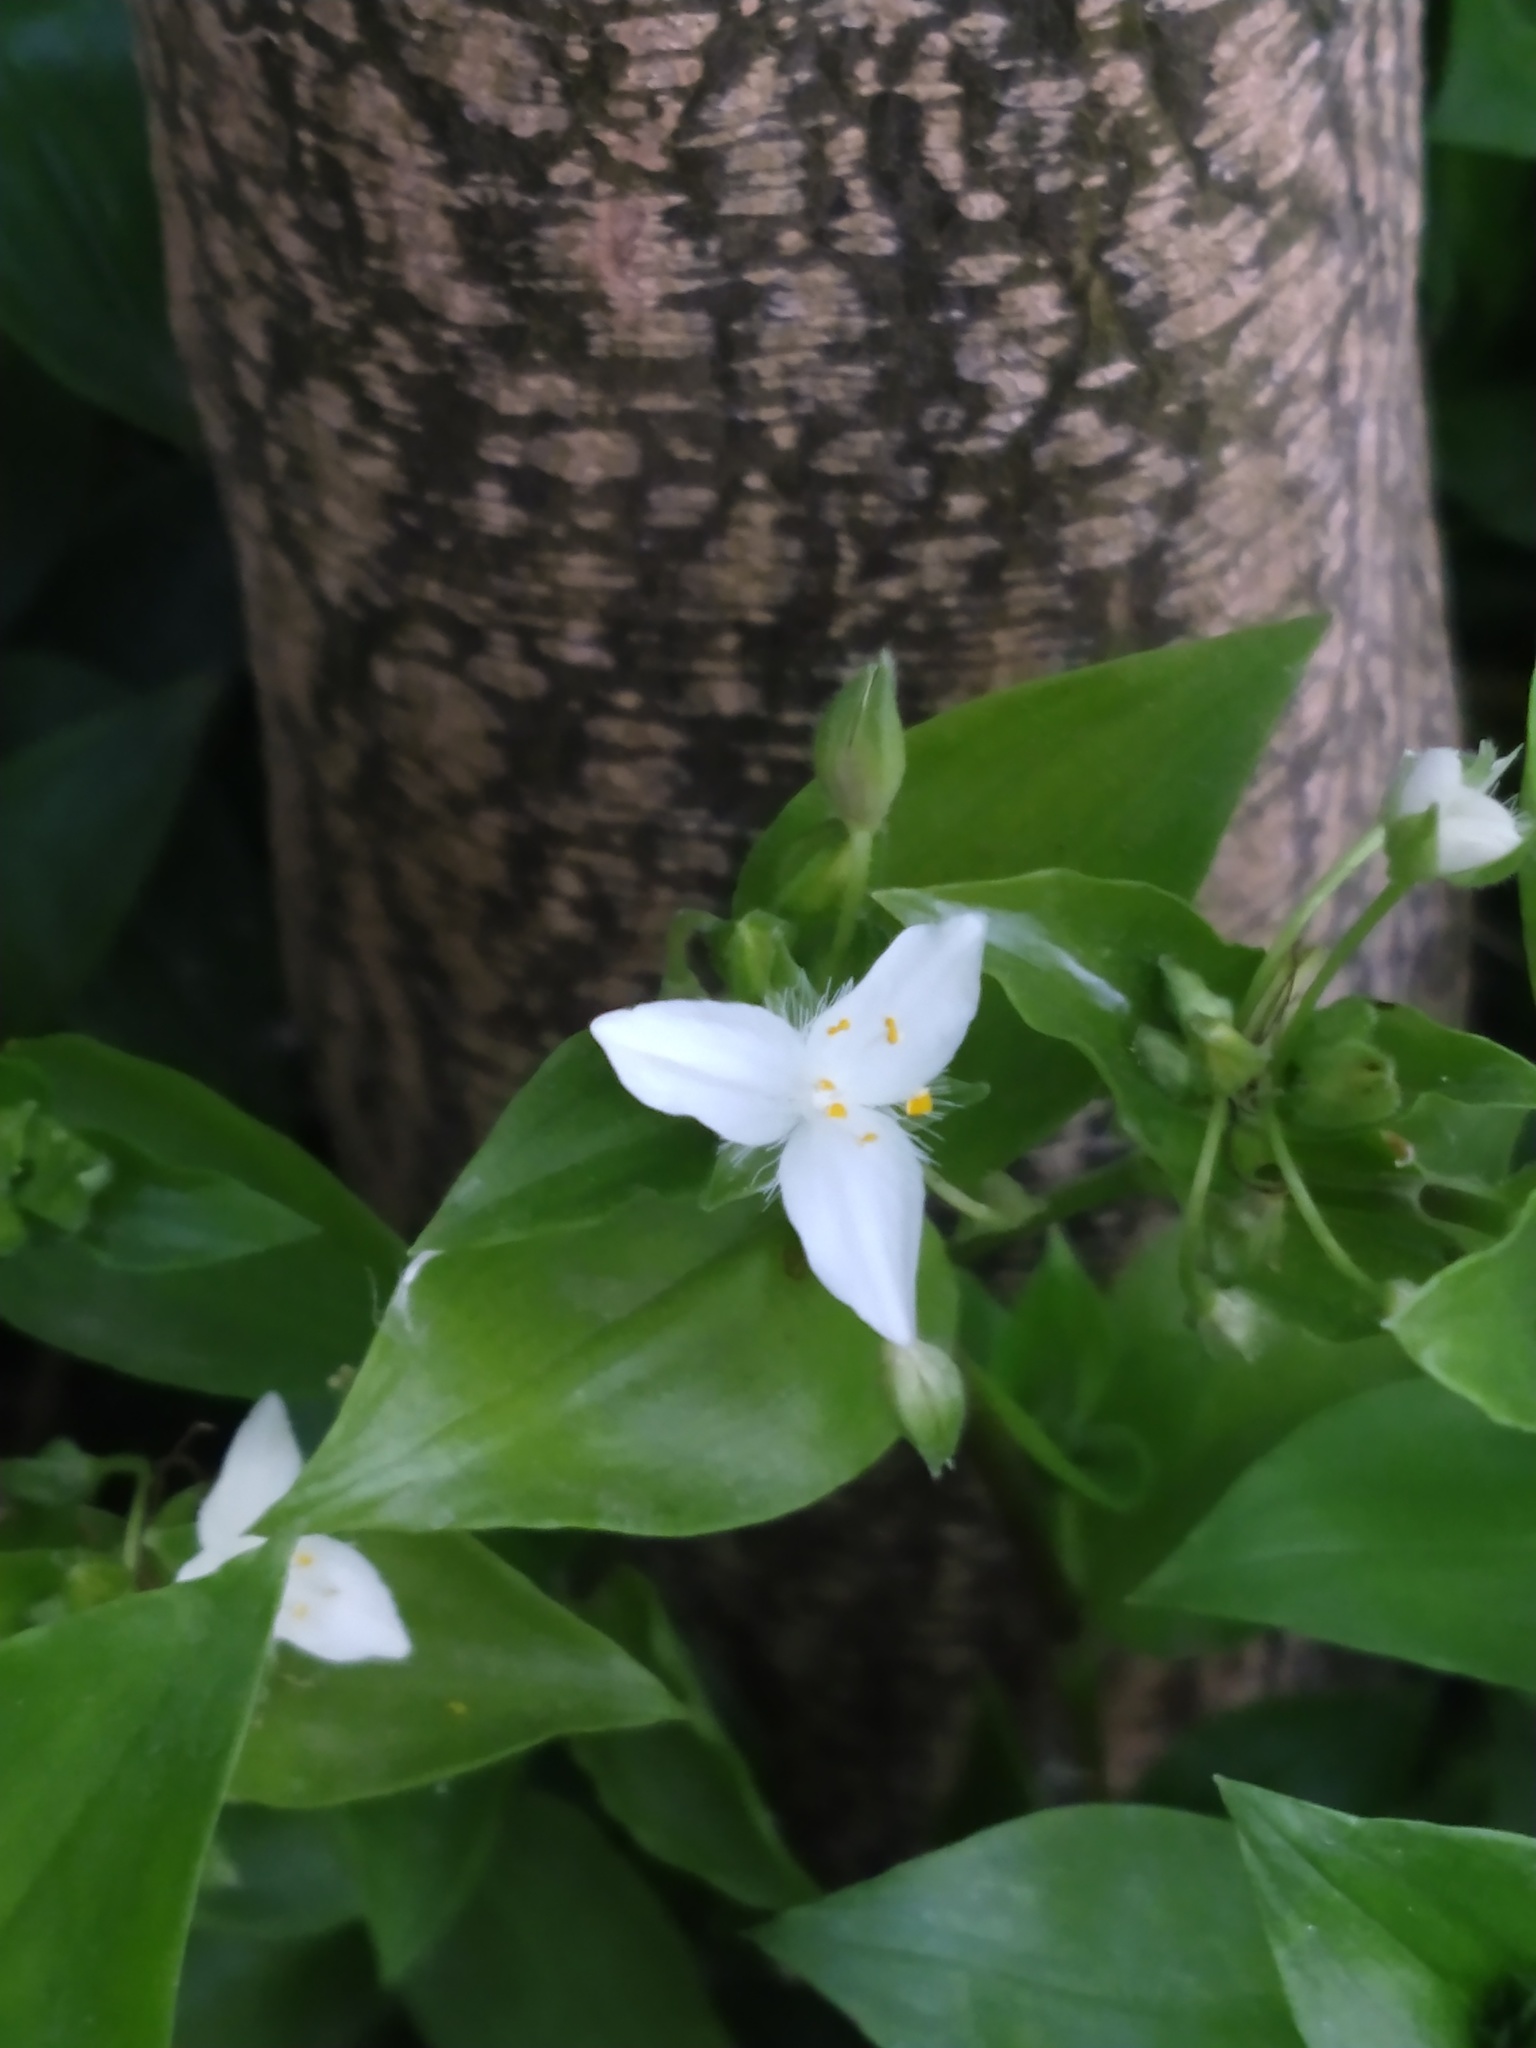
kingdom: Plantae
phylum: Tracheophyta
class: Liliopsida
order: Commelinales
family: Commelinaceae
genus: Tradescantia
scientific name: Tradescantia fluminensis
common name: Wandering-jew
